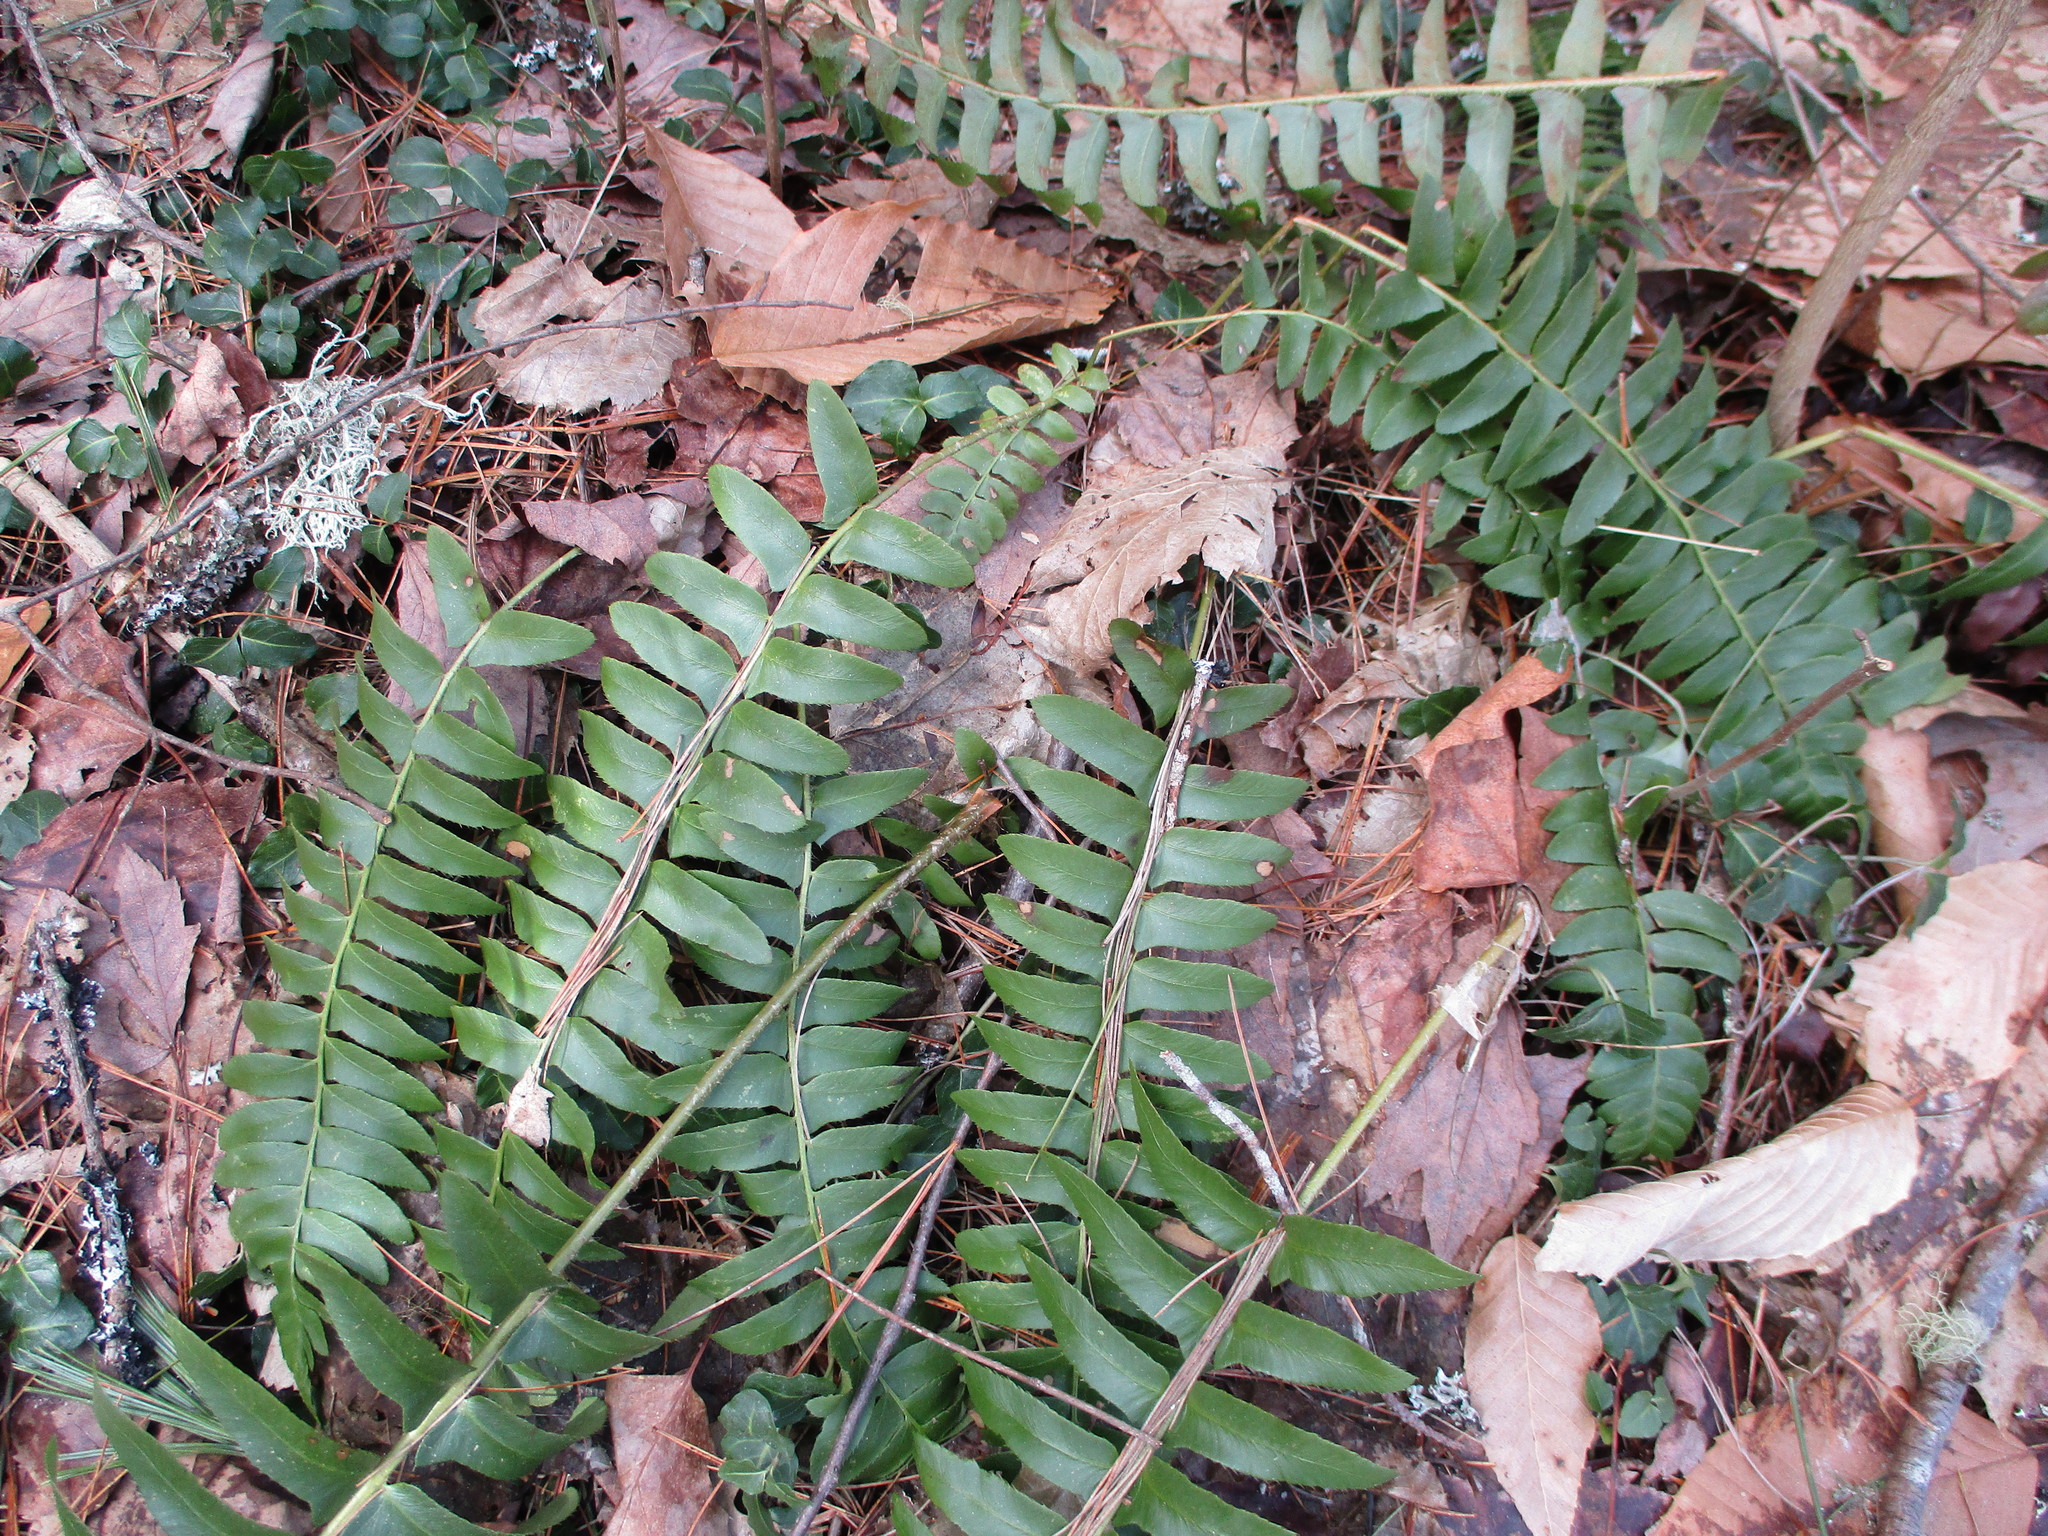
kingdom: Plantae
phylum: Tracheophyta
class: Polypodiopsida
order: Polypodiales
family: Dryopteridaceae
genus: Polystichum
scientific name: Polystichum acrostichoides
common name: Christmas fern
